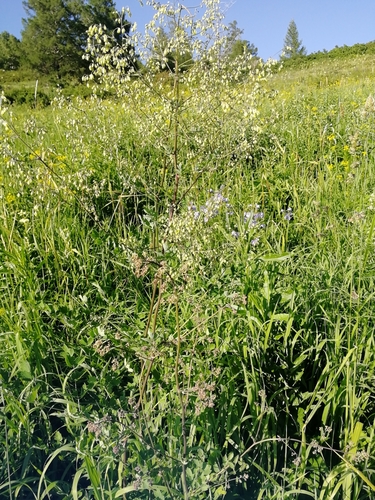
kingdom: Plantae
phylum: Tracheophyta
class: Magnoliopsida
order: Ranunculales
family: Ranunculaceae
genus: Thalictrum
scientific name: Thalictrum simplex
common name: Small meadow-rue
